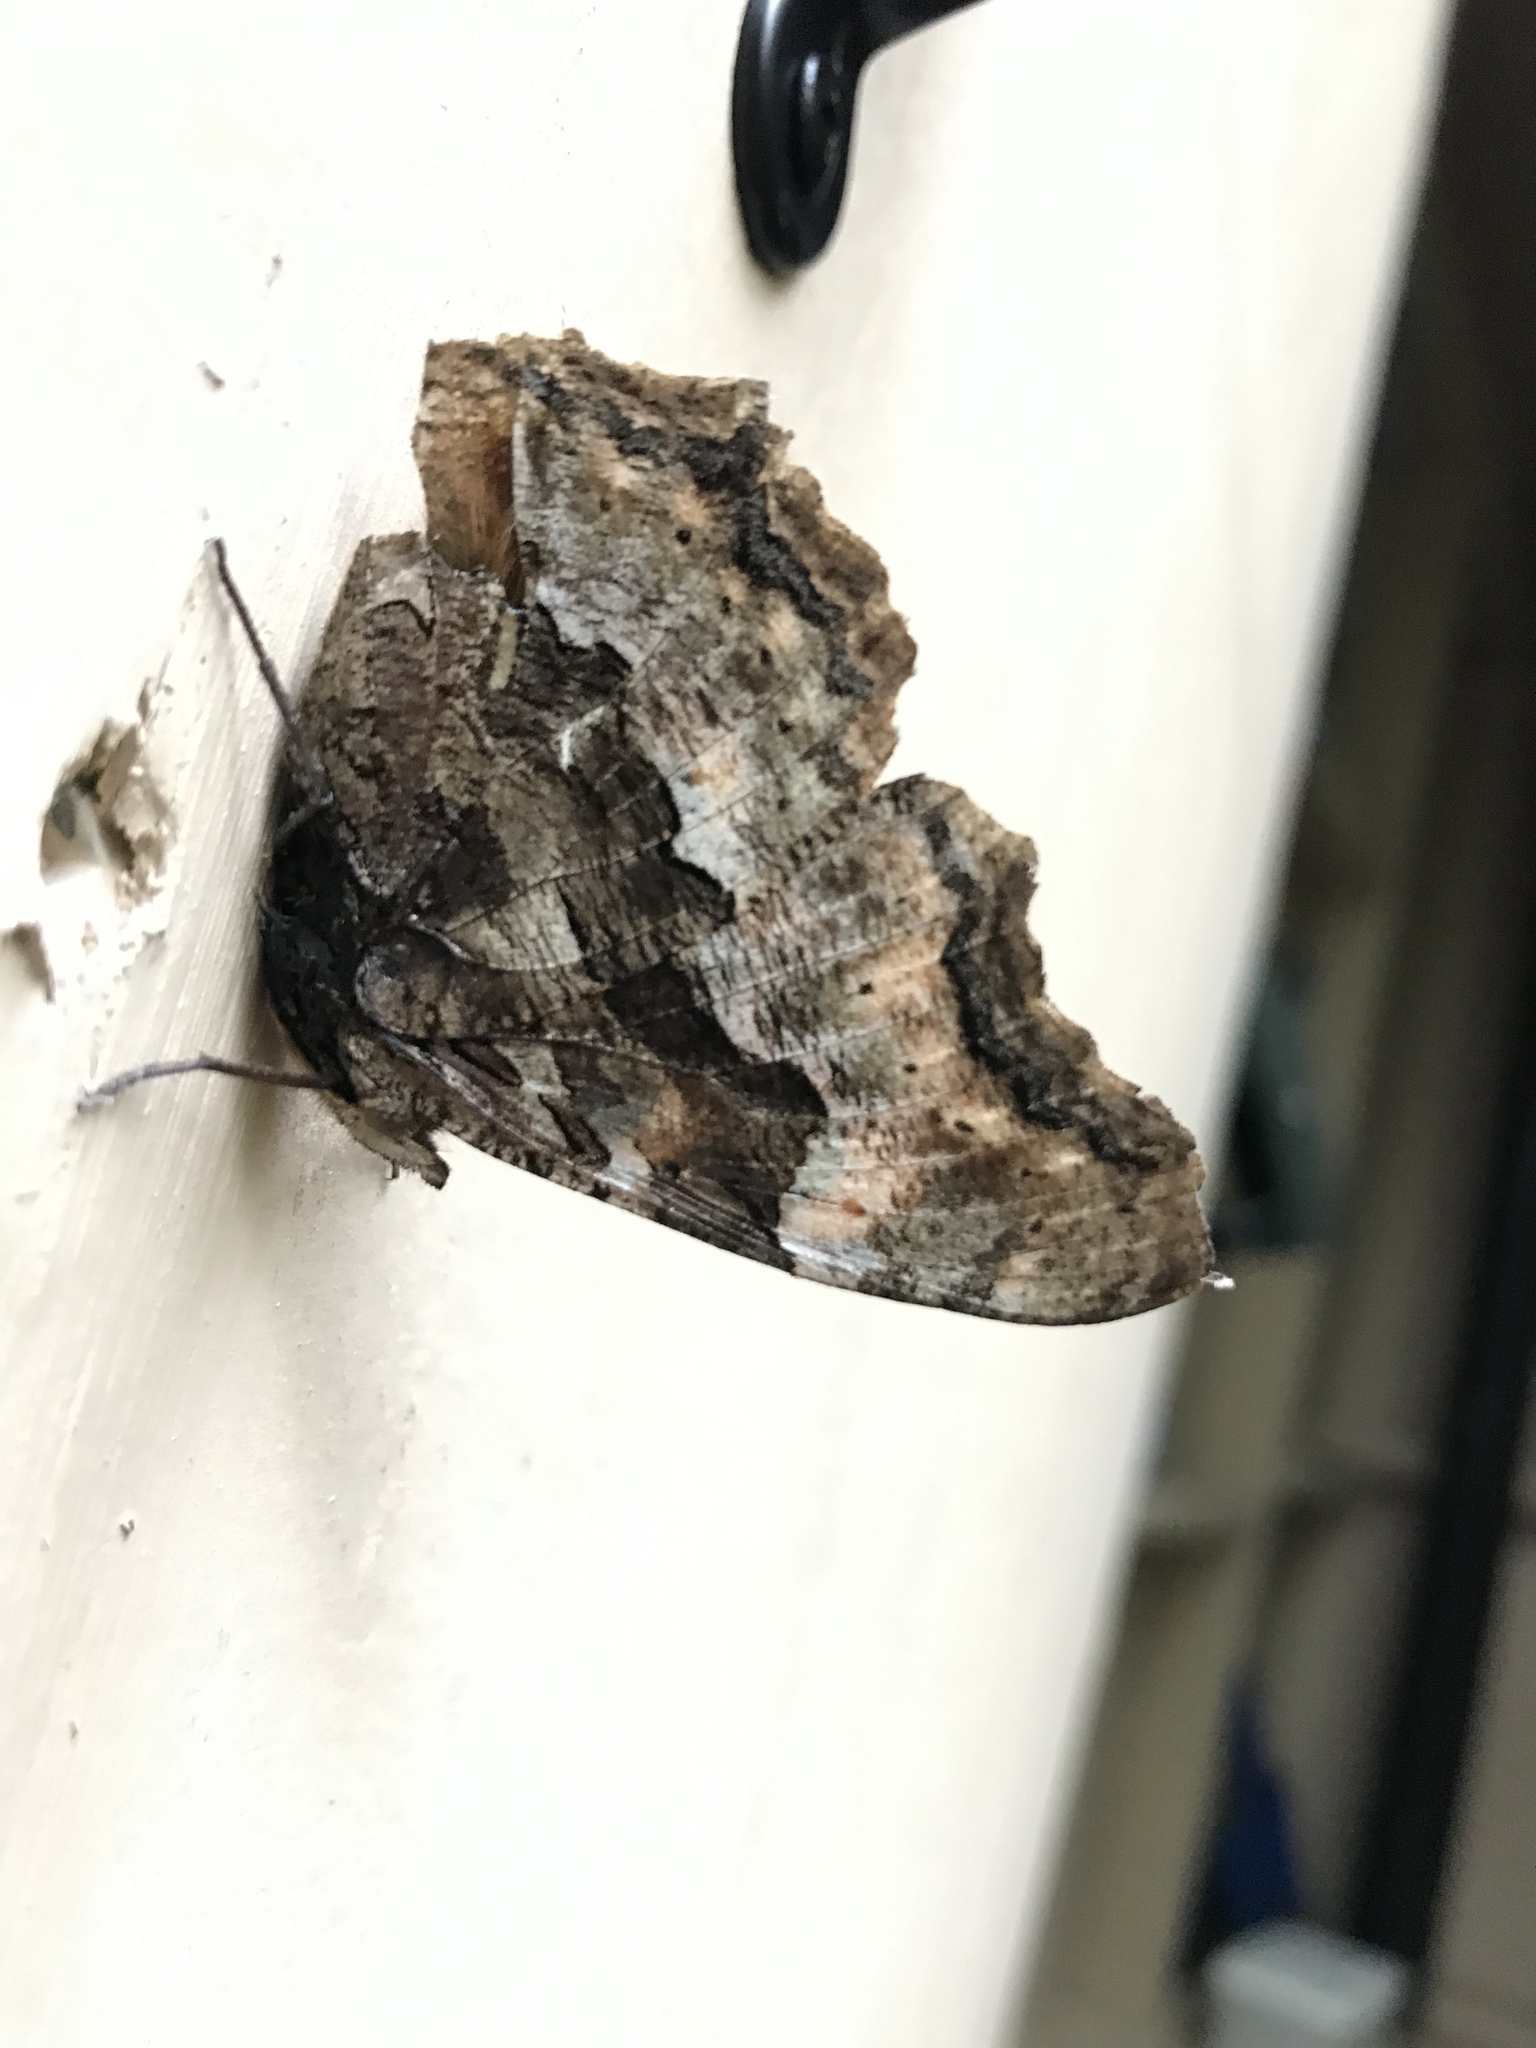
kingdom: Animalia
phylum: Arthropoda
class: Insecta
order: Lepidoptera
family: Nymphalidae
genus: Polygonia
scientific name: Polygonia vaualbum
